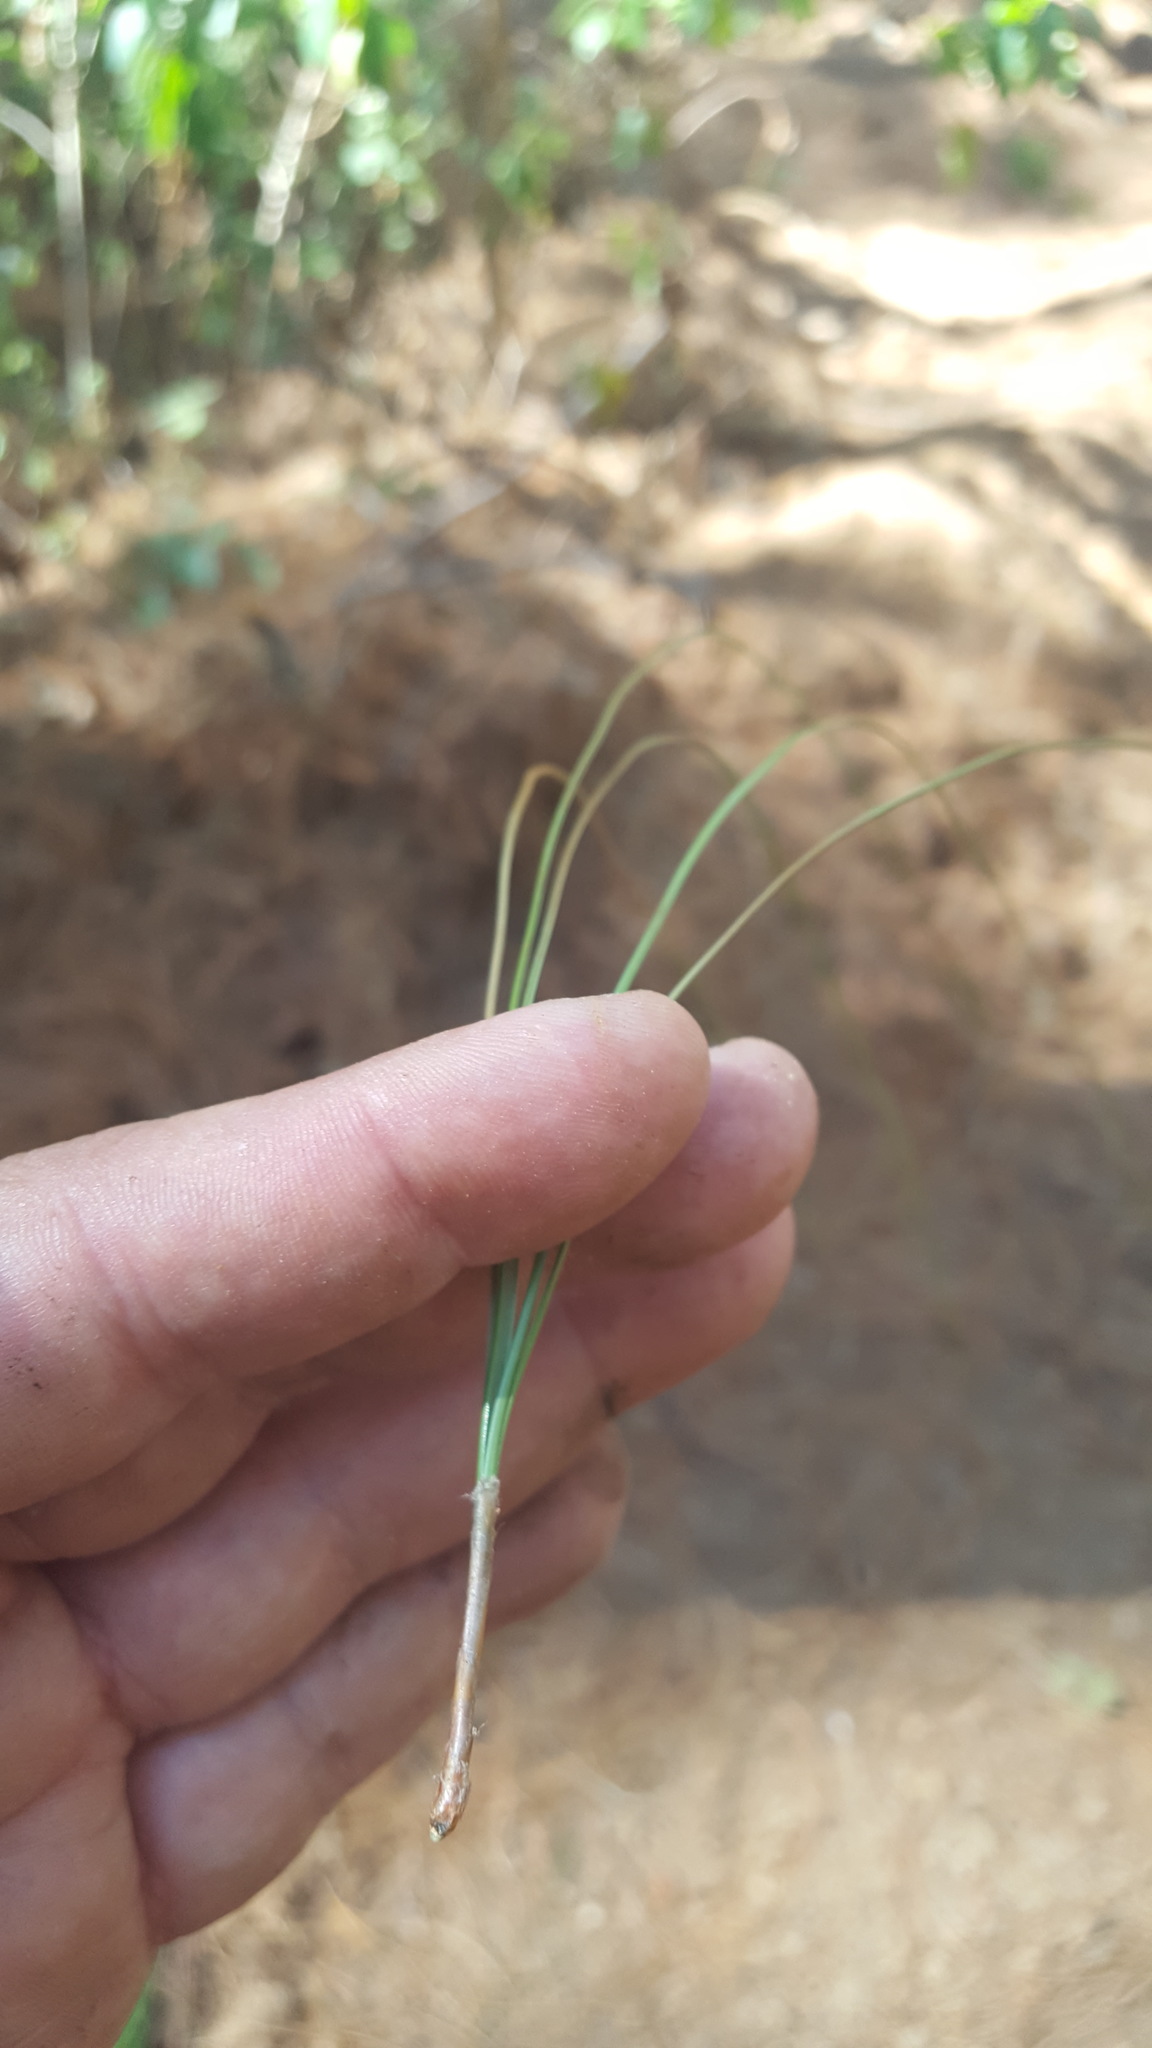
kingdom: Plantae
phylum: Tracheophyta
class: Pinopsida
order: Pinales
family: Pinaceae
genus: Pinus
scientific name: Pinus pseudostrobus
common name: False weymouth pine
